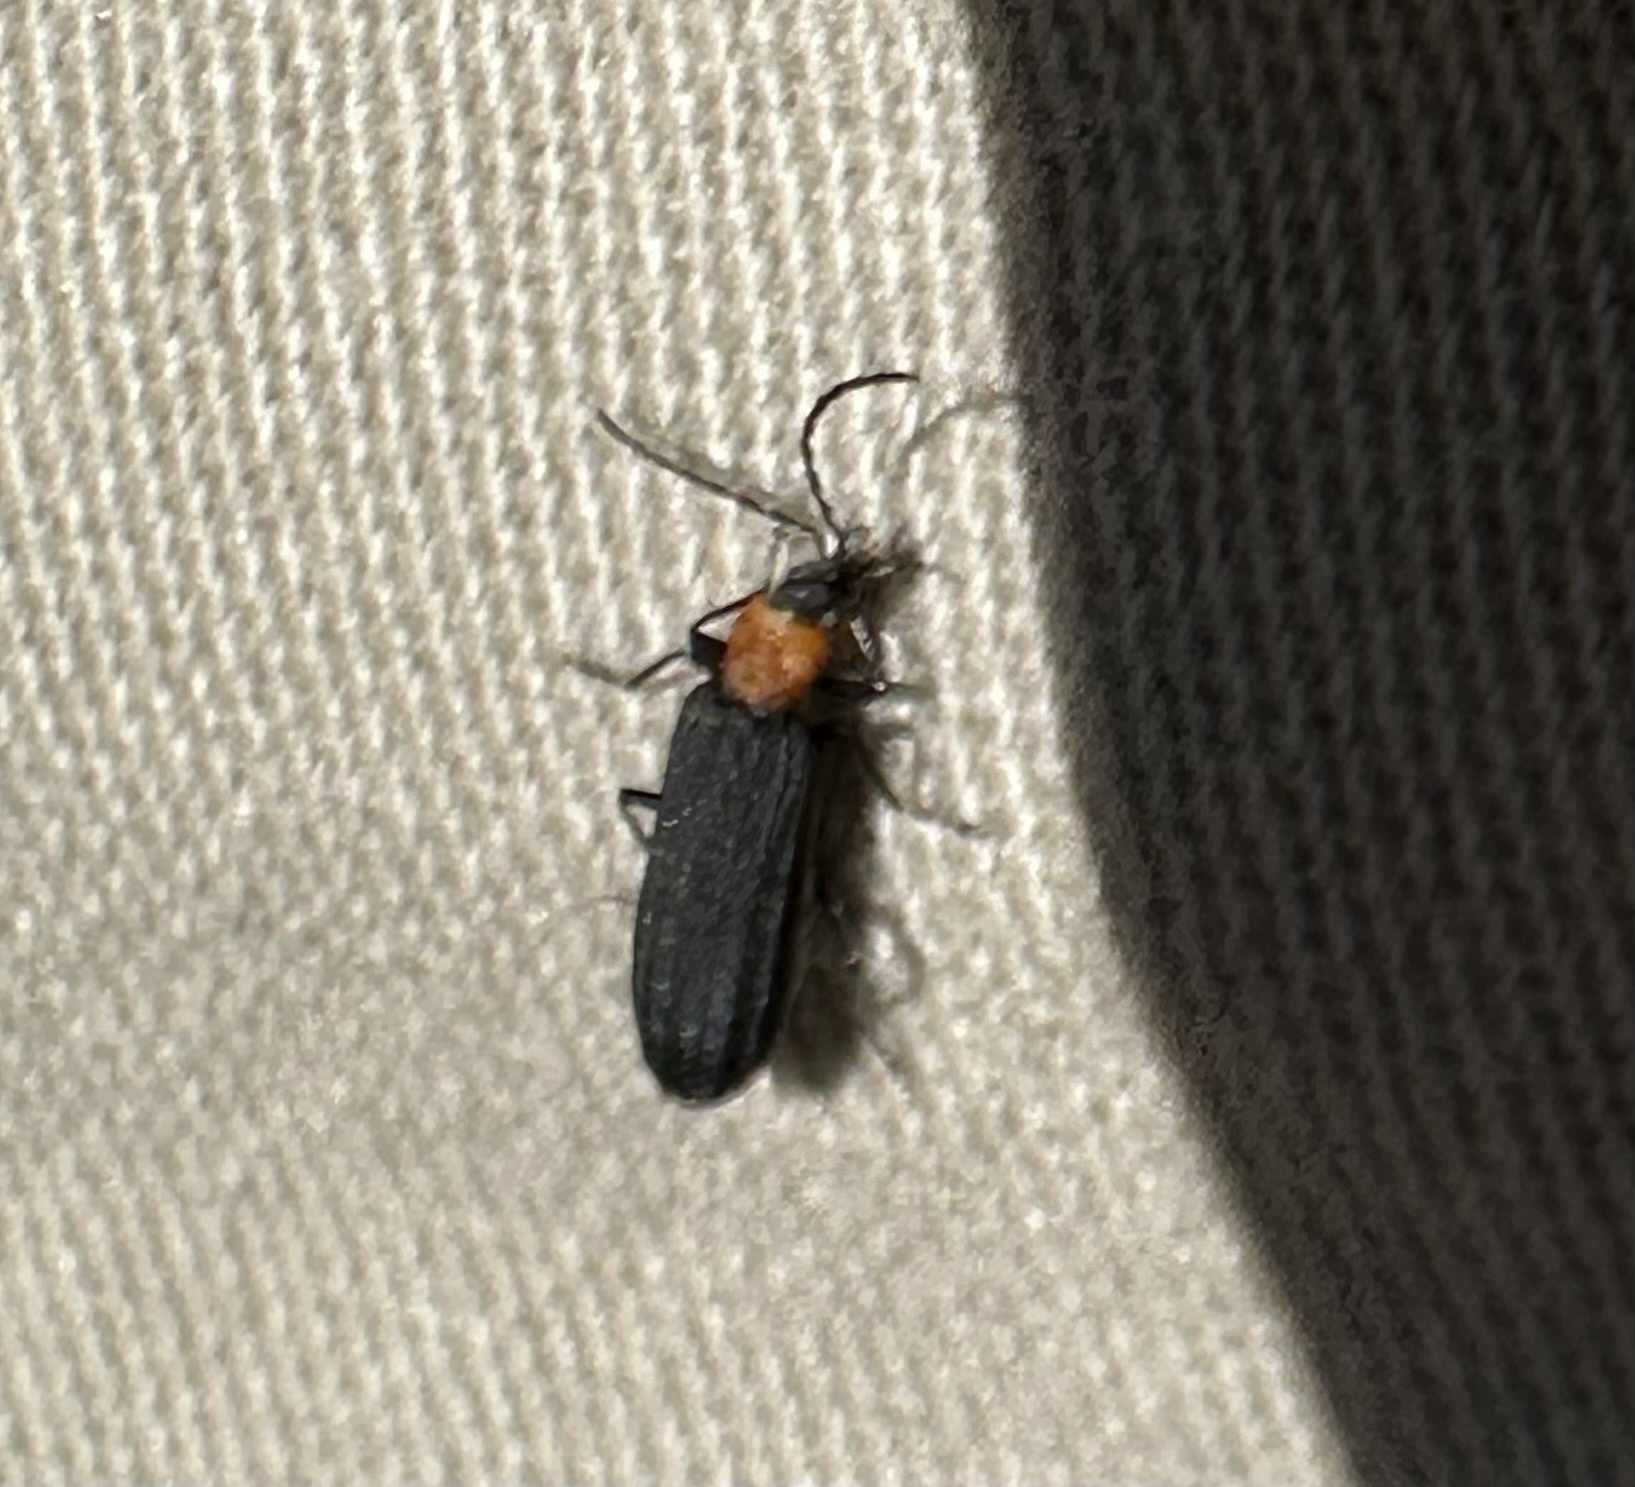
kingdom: Animalia
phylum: Arthropoda
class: Insecta
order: Coleoptera
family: Oedemeridae
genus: Ischnomera
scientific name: Ischnomera
